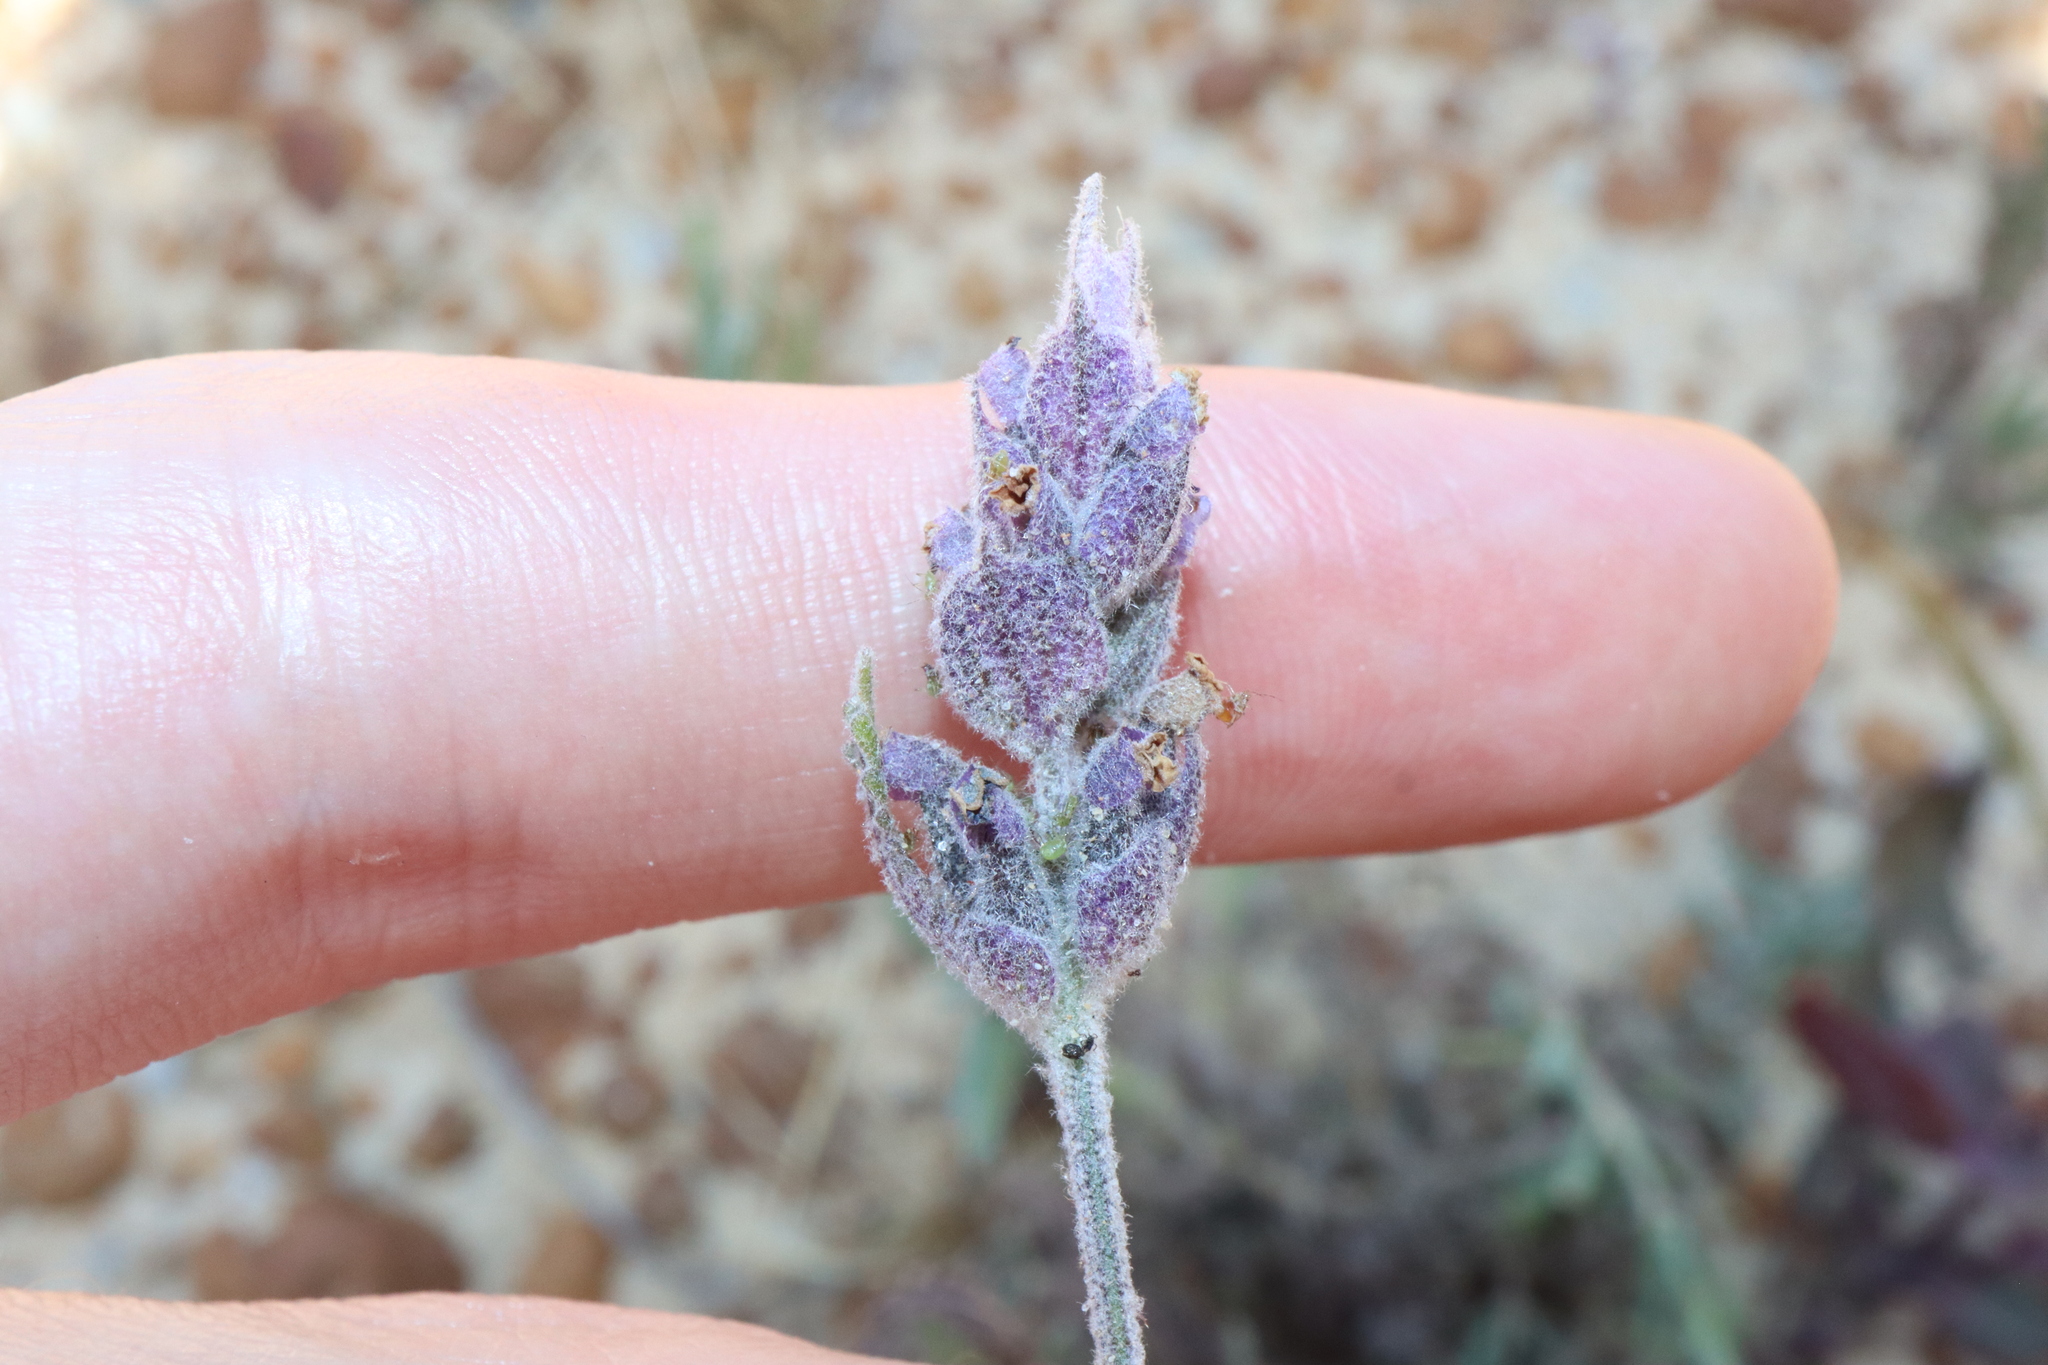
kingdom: Plantae
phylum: Tracheophyta
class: Magnoliopsida
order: Lamiales
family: Lamiaceae
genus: Lavandula
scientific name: Lavandula dentata
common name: French lavender
